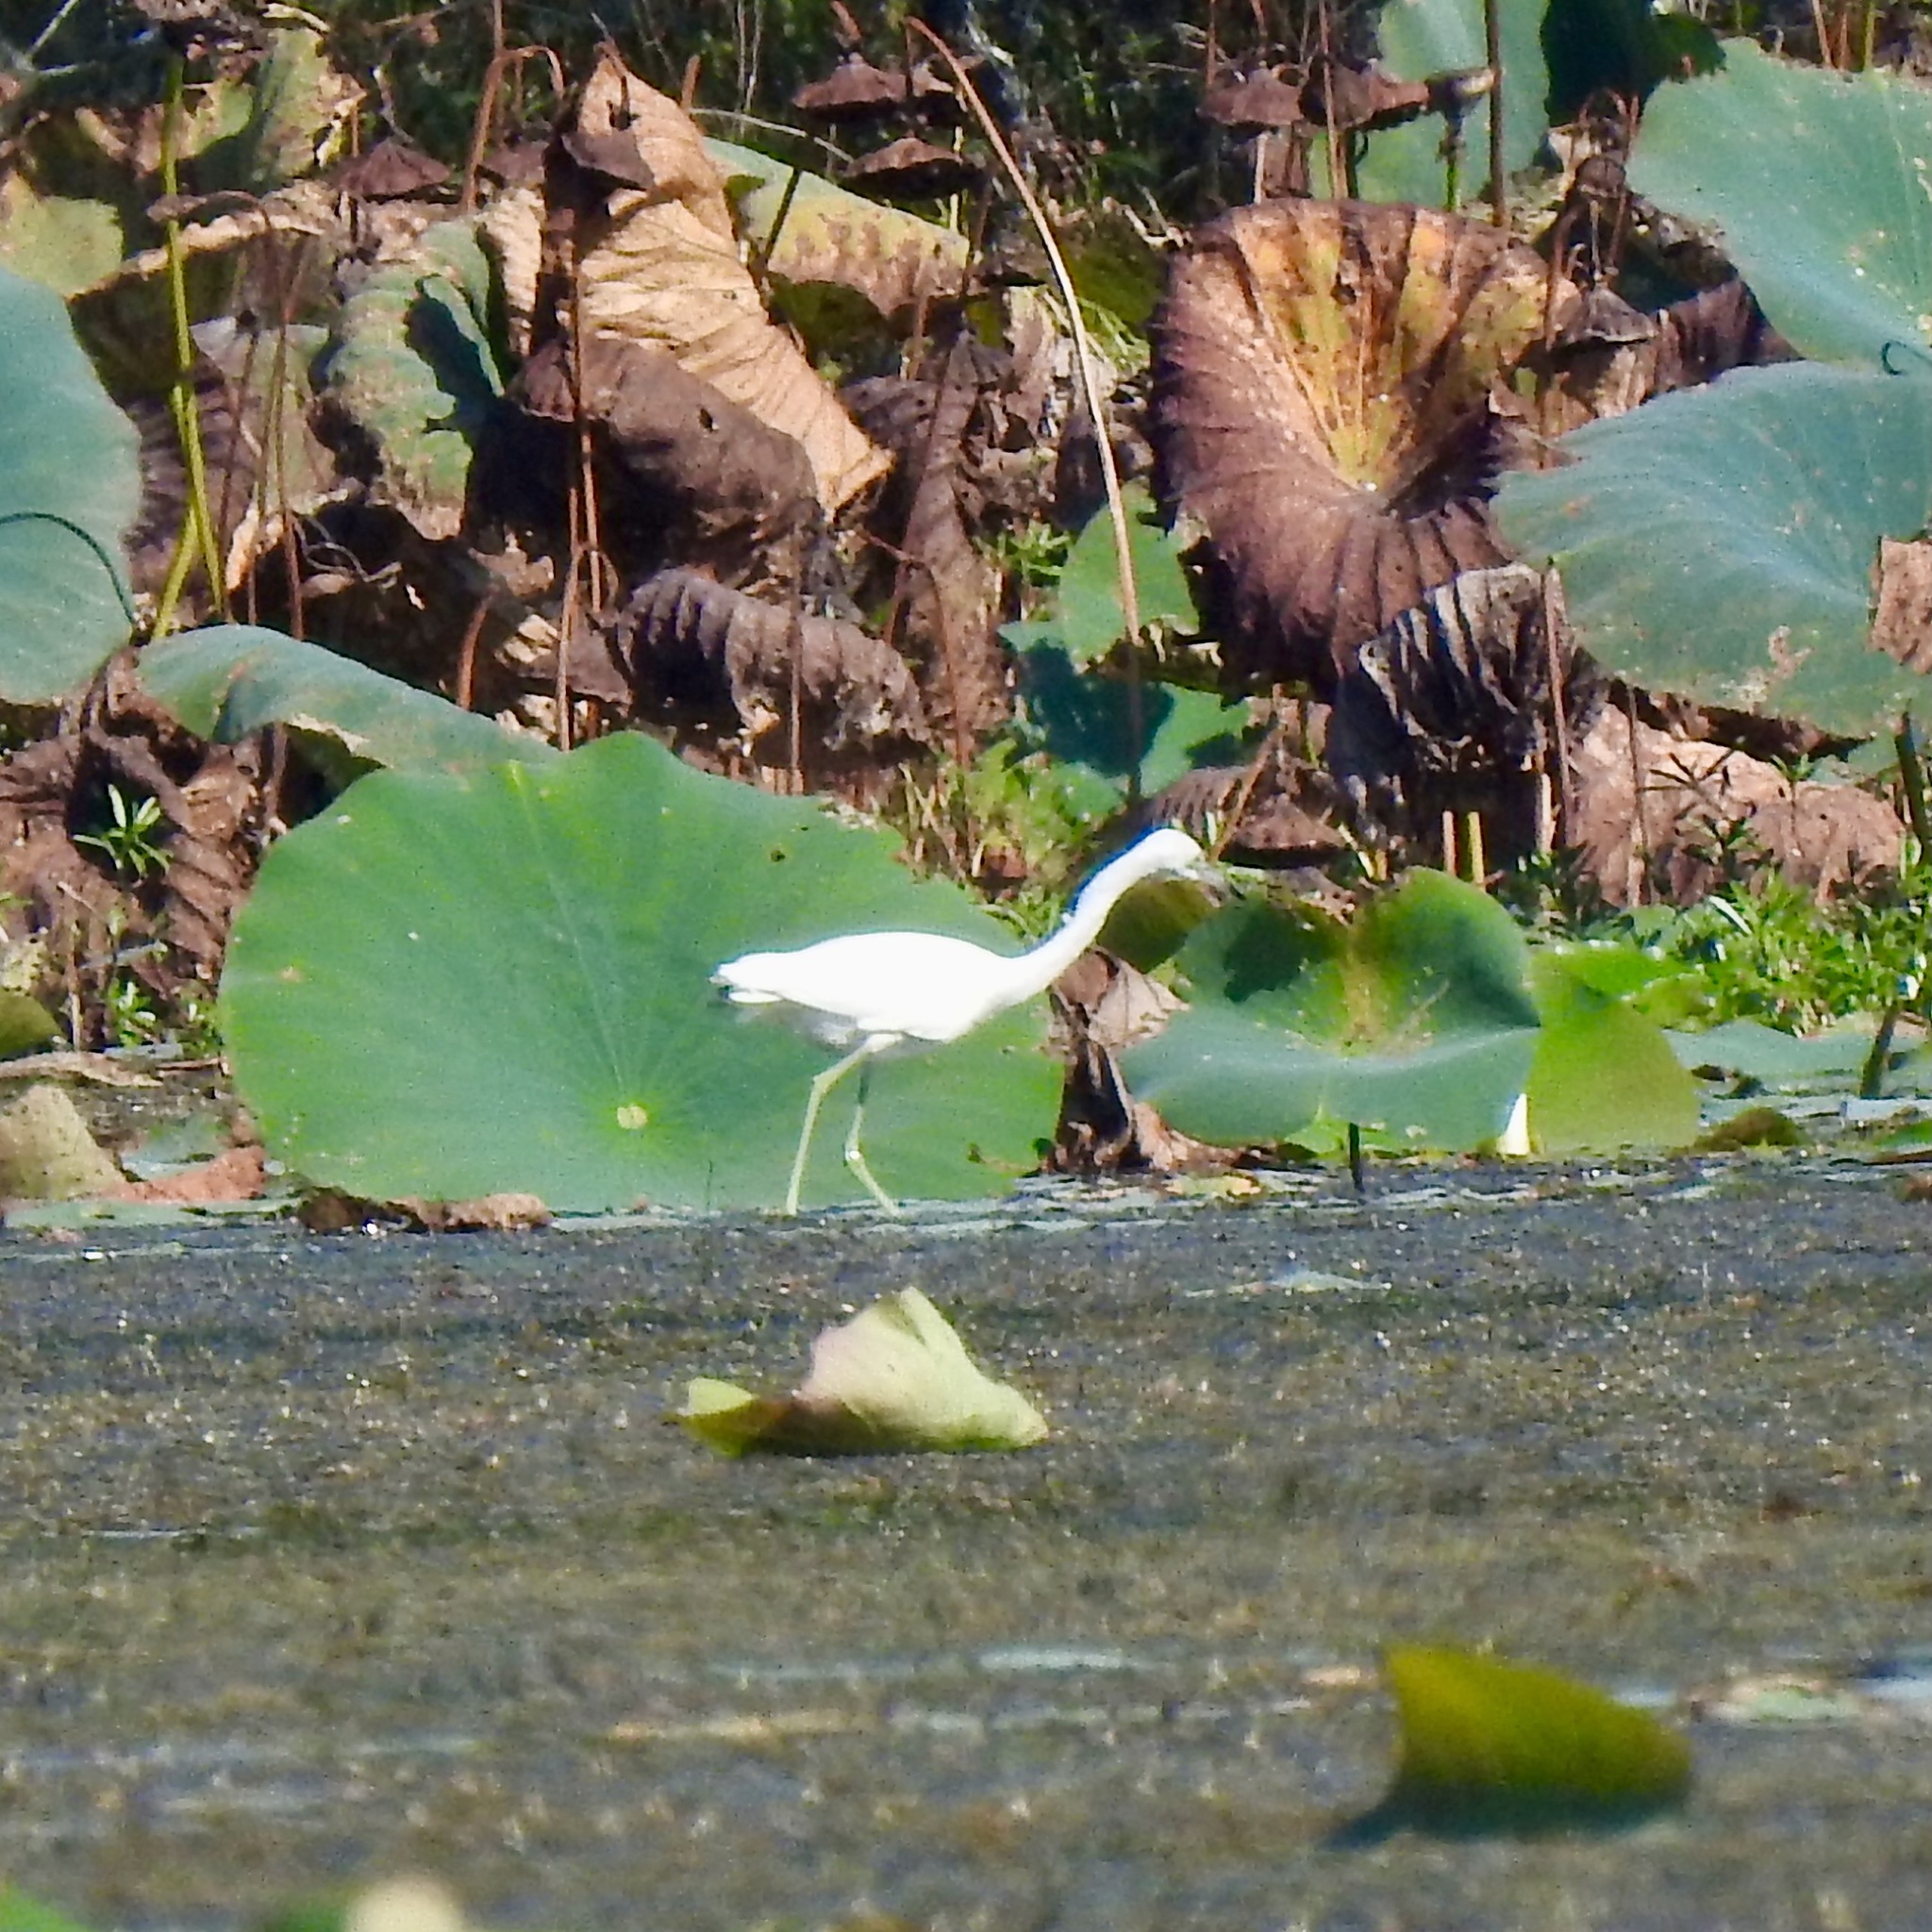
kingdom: Animalia
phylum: Chordata
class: Aves
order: Pelecaniformes
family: Ardeidae
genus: Egretta
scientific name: Egretta caerulea
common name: Little blue heron
